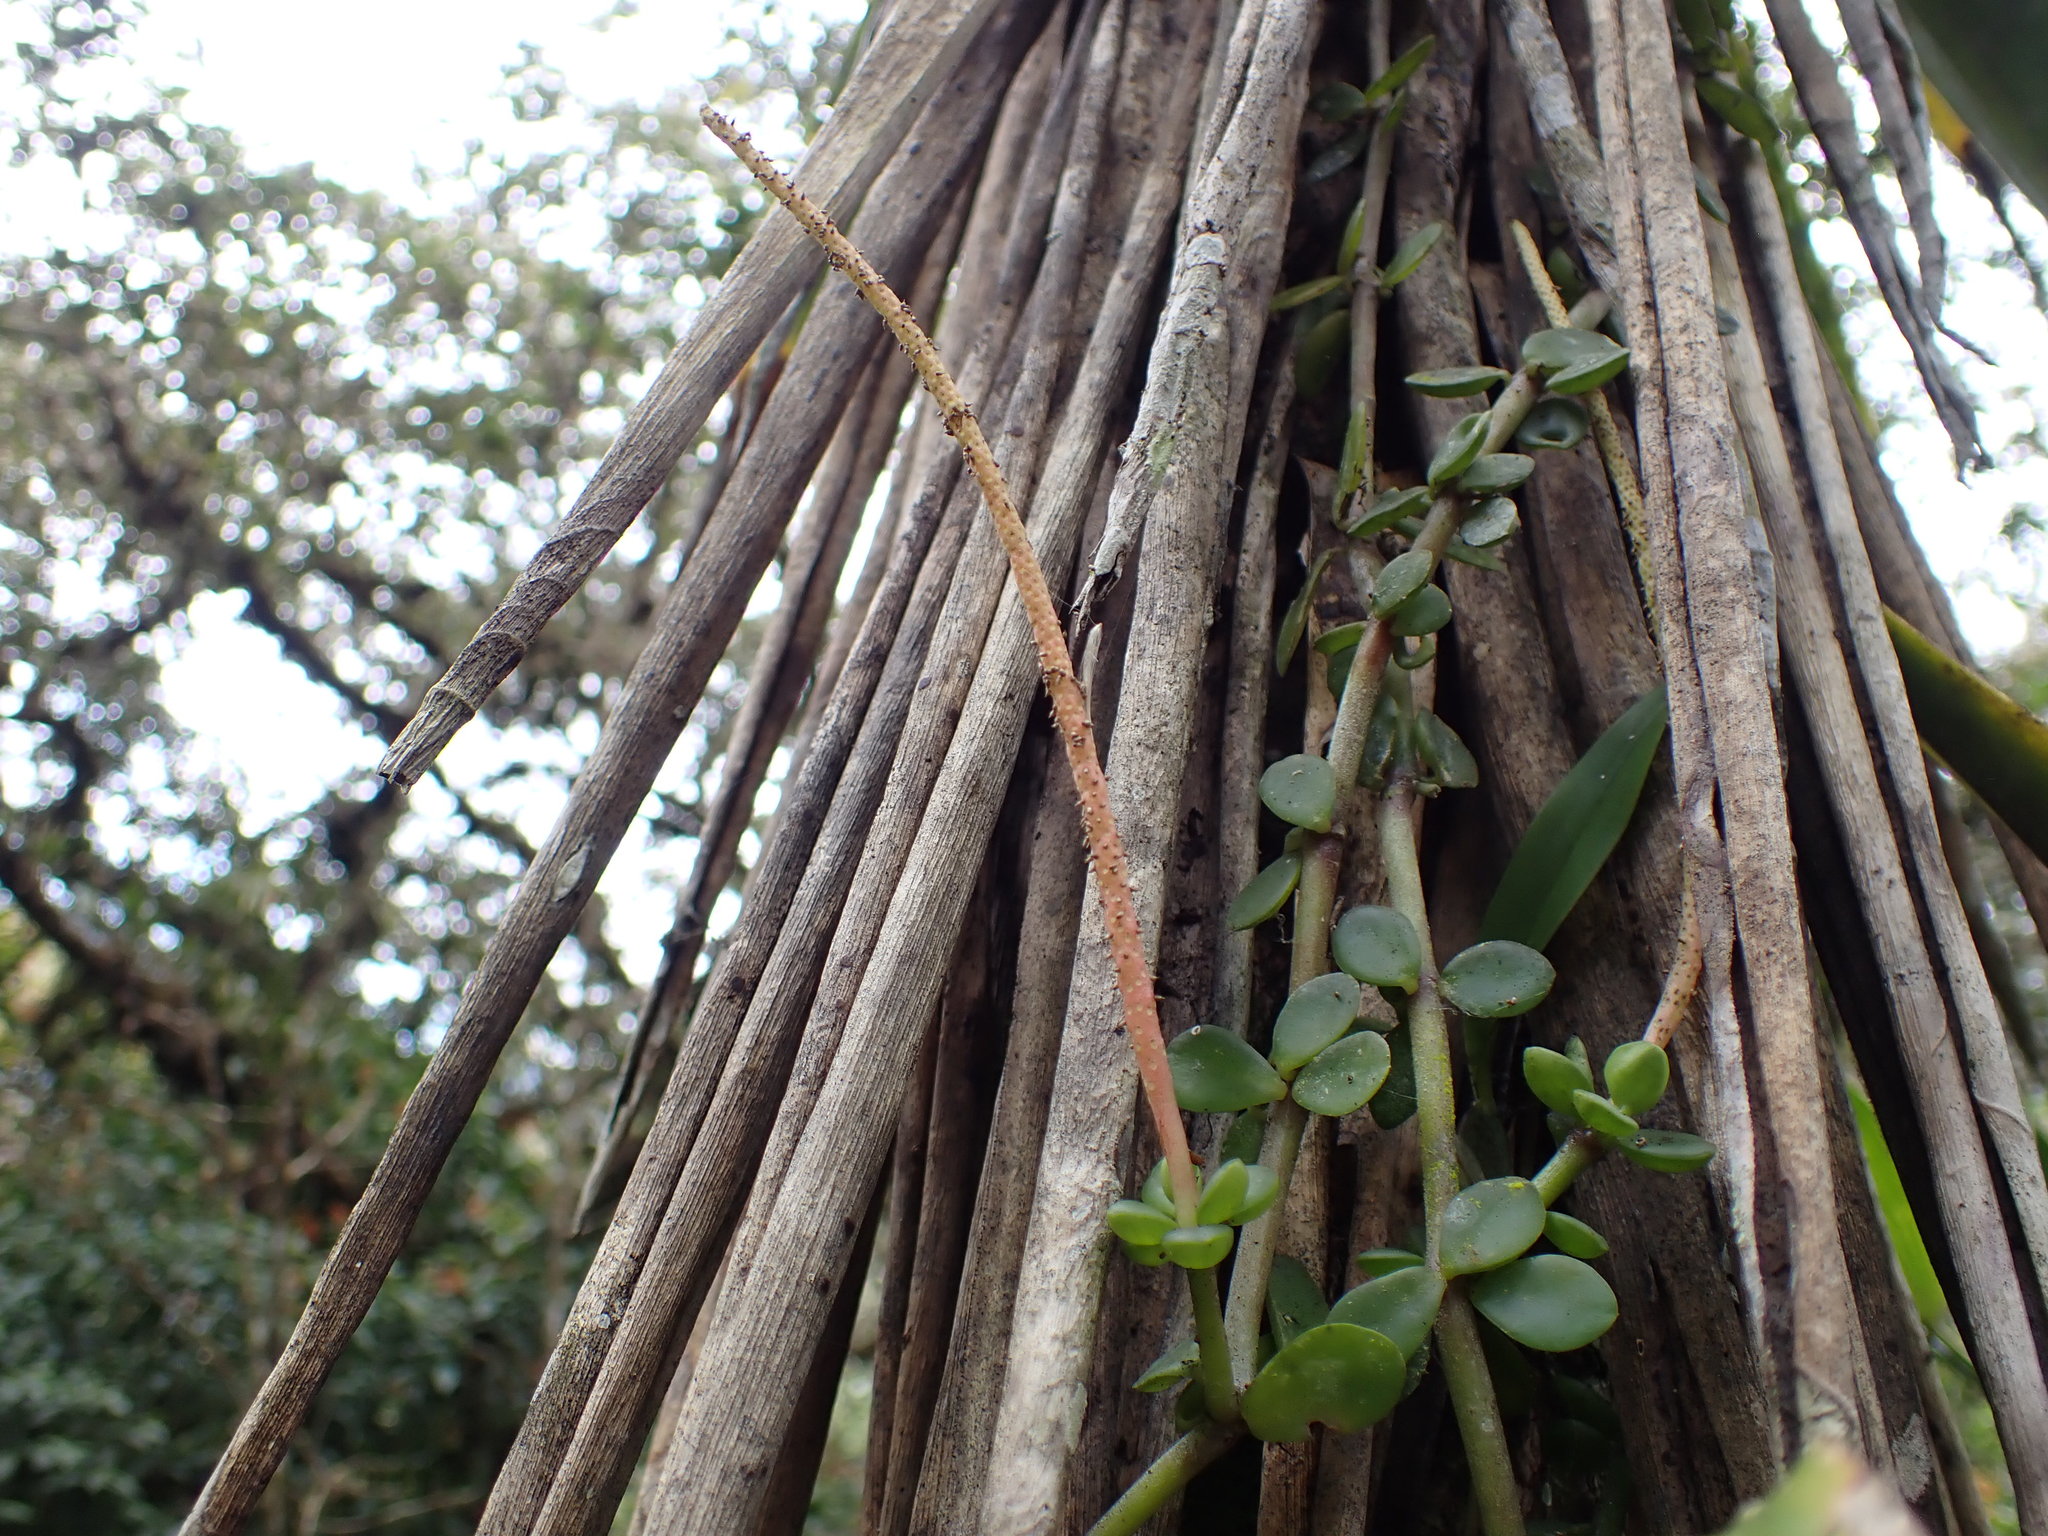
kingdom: Plantae
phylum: Tracheophyta
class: Magnoliopsida
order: Piperales
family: Piperaceae
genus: Peperomia
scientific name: Peperomia cerea
